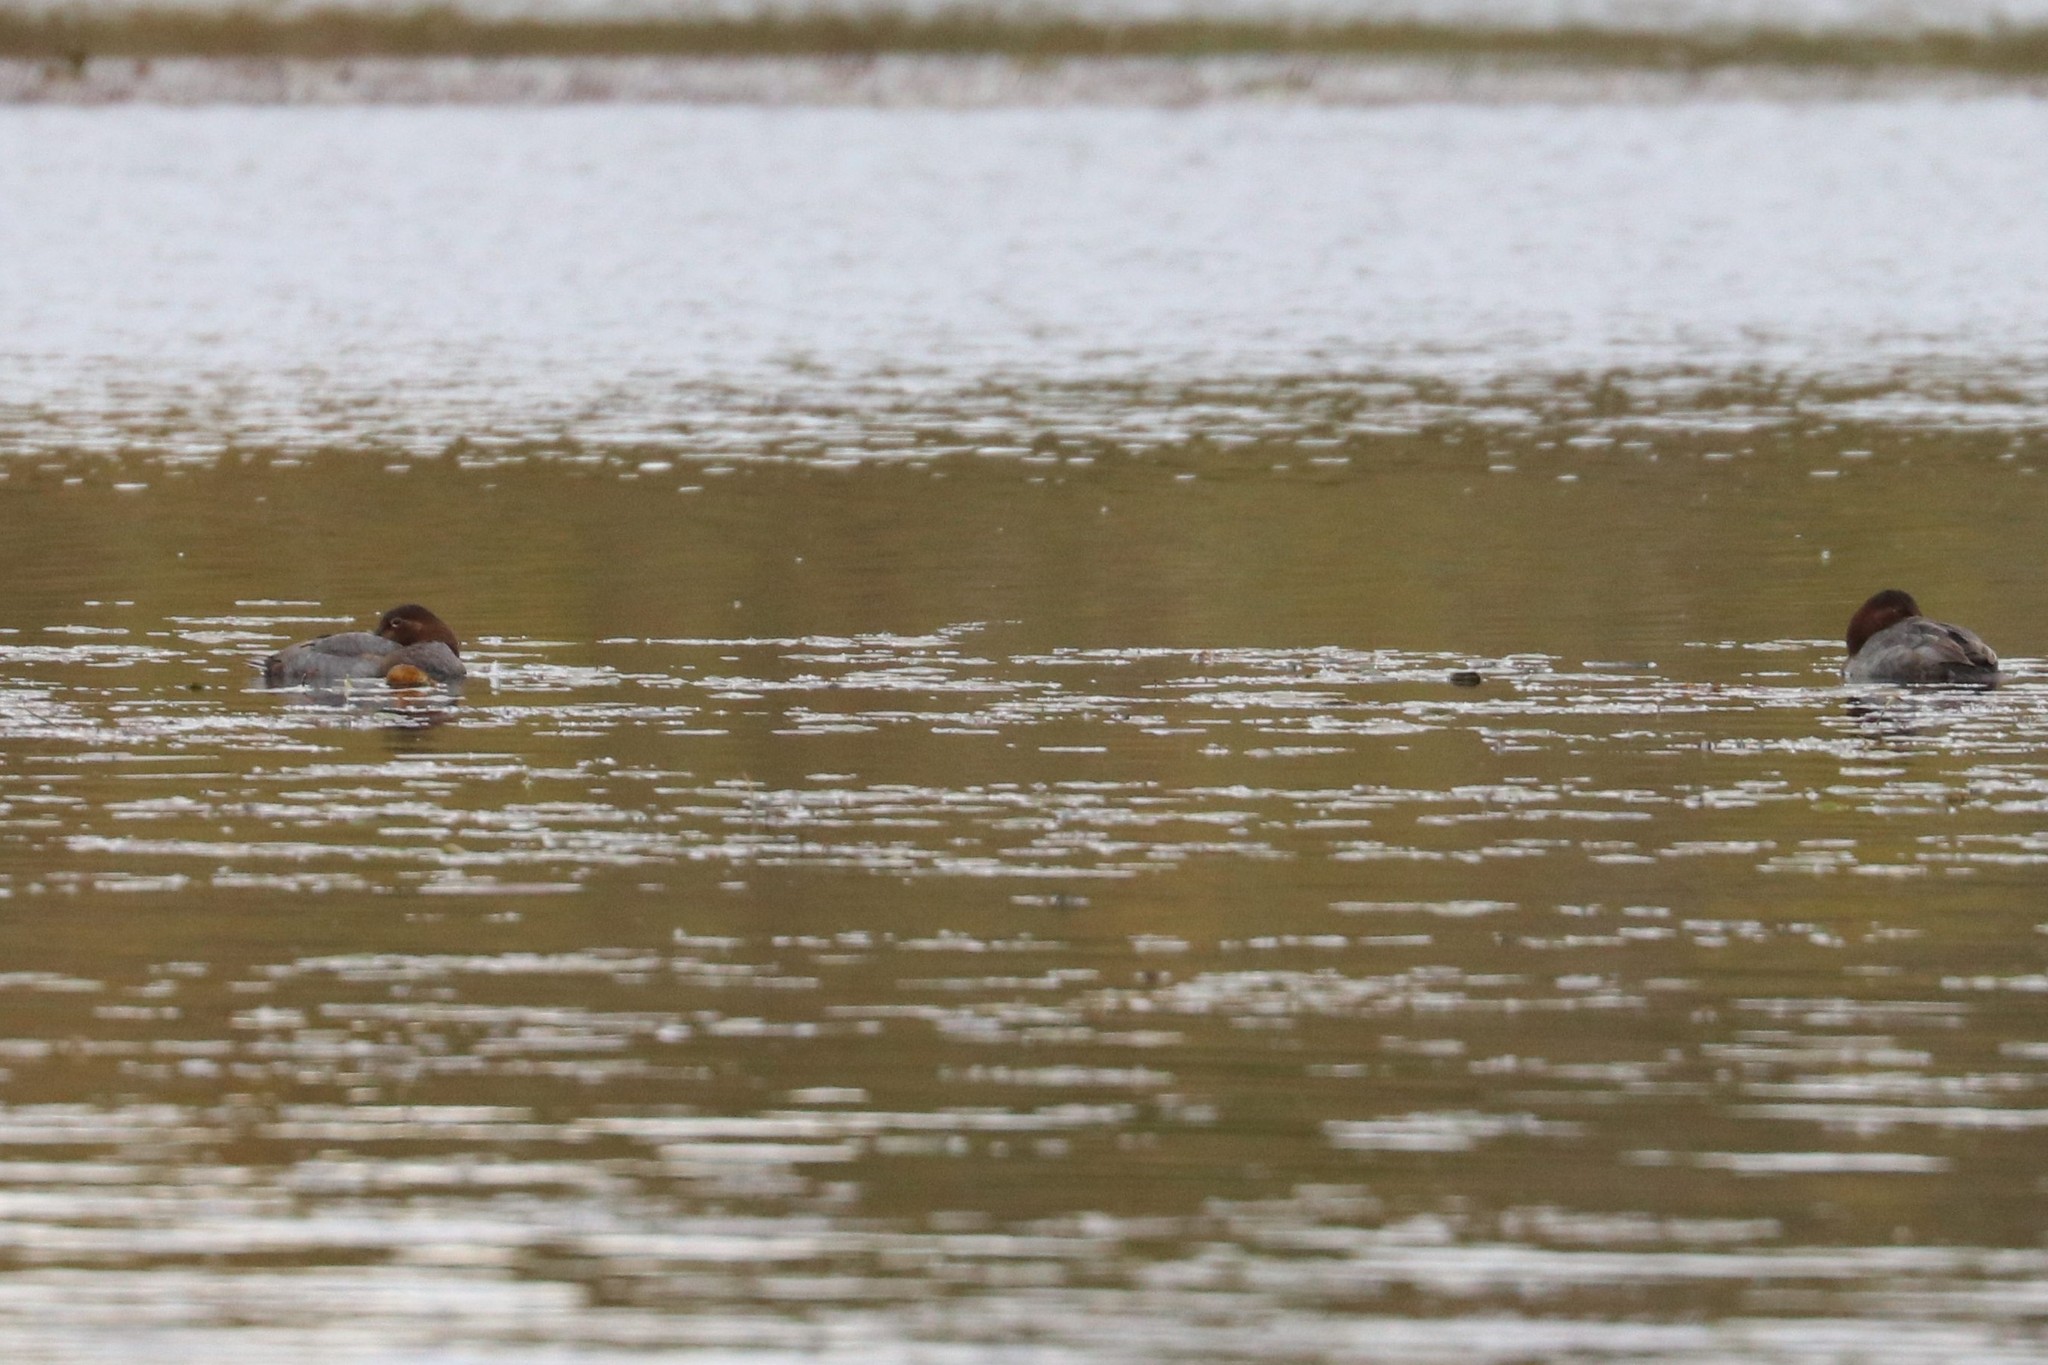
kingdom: Animalia
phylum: Chordata
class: Aves
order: Anseriformes
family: Anatidae
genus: Aythya
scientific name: Aythya ferina
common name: Common pochard
